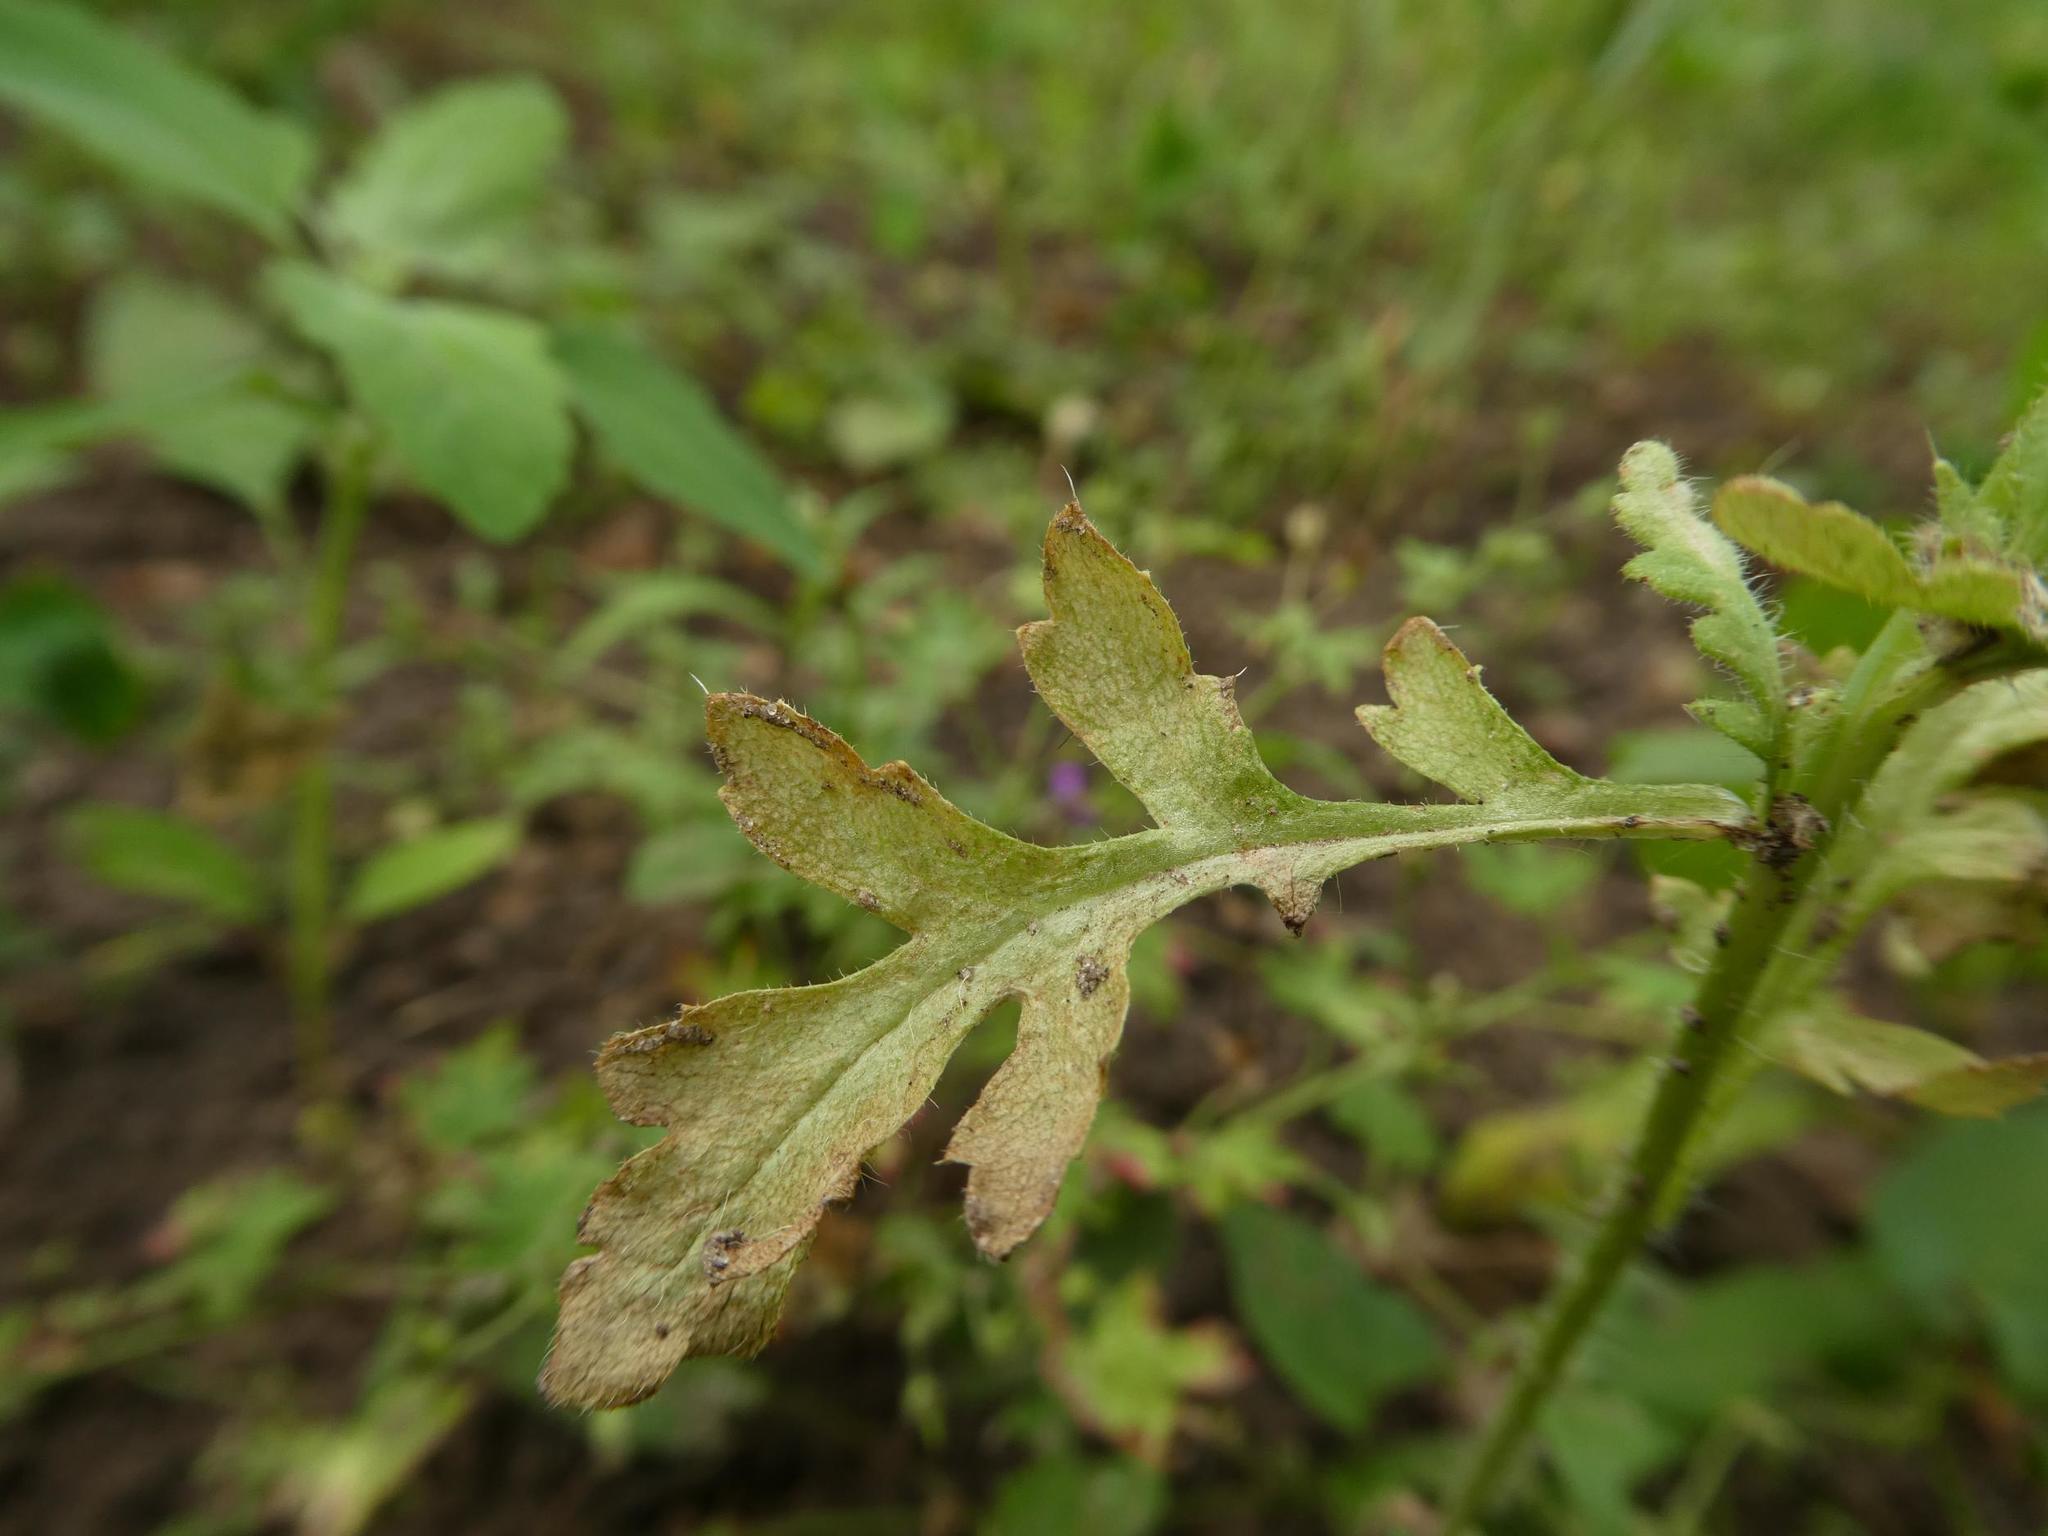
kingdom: Plantae
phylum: Tracheophyta
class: Magnoliopsida
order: Ranunculales
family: Papaveraceae
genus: Papaver
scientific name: Papaver dubium
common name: Long-headed poppy
